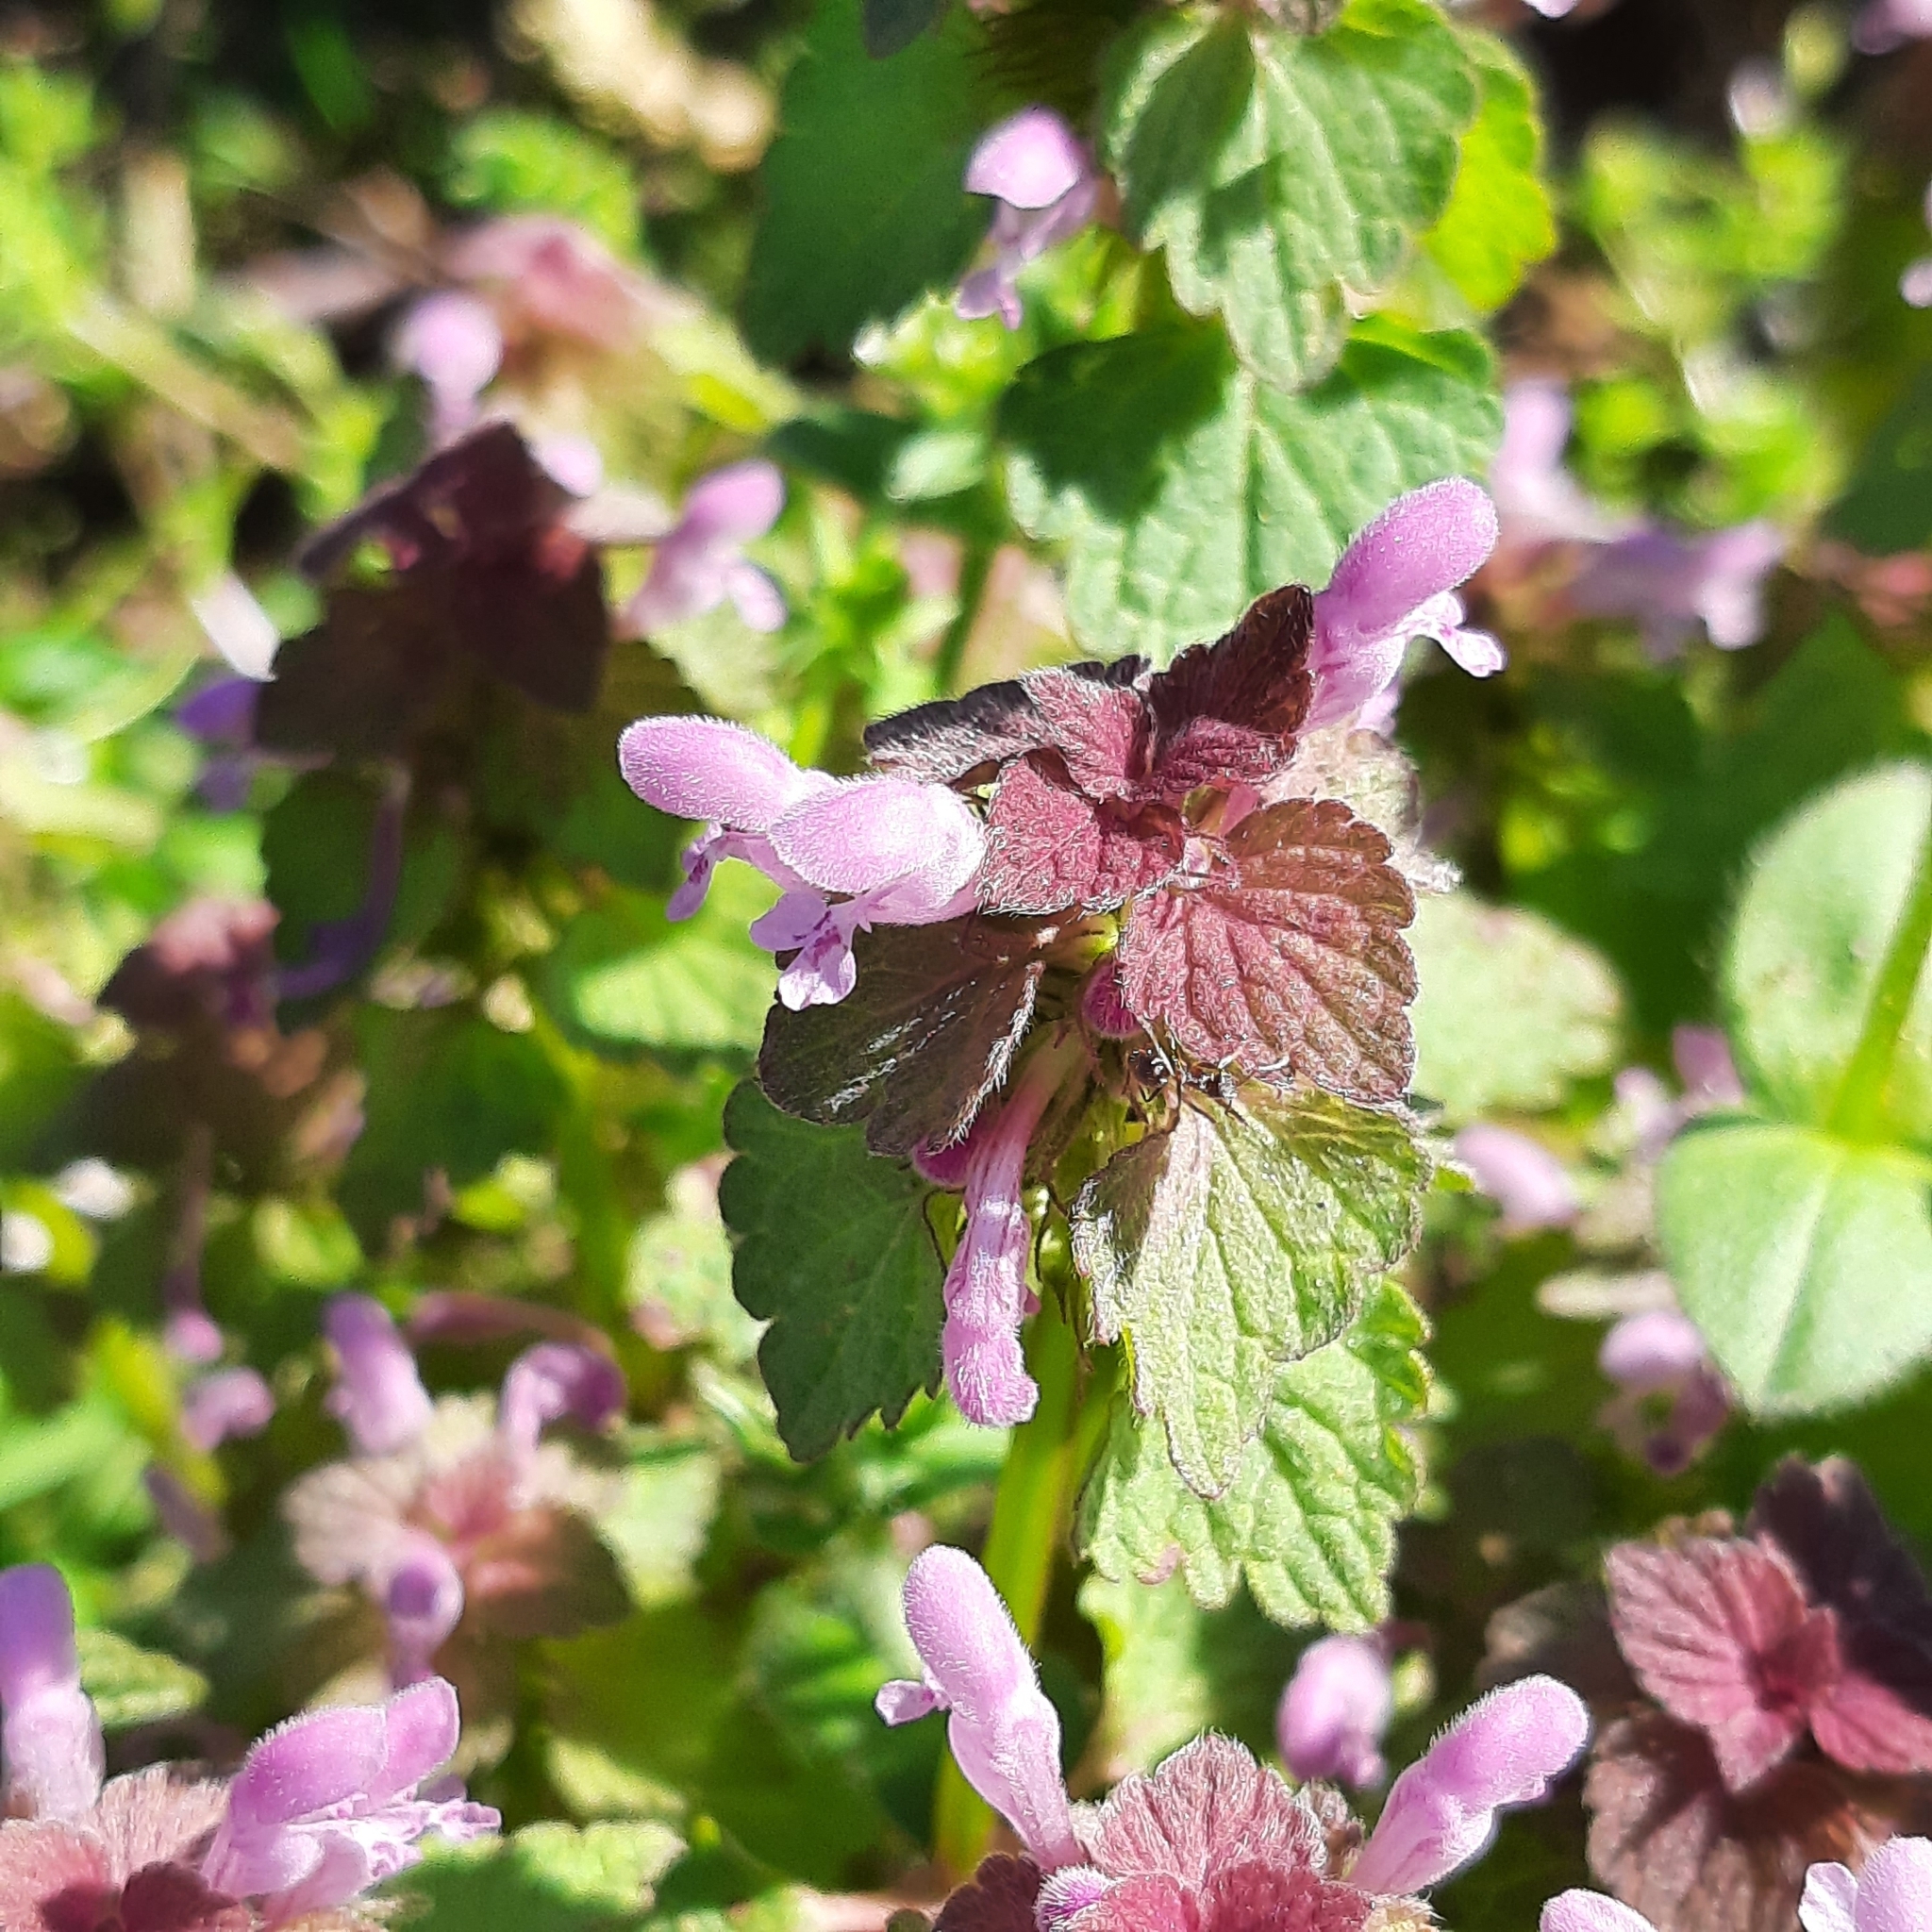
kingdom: Plantae
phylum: Tracheophyta
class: Magnoliopsida
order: Lamiales
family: Lamiaceae
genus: Lamium
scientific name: Lamium purpureum
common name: Red dead-nettle
